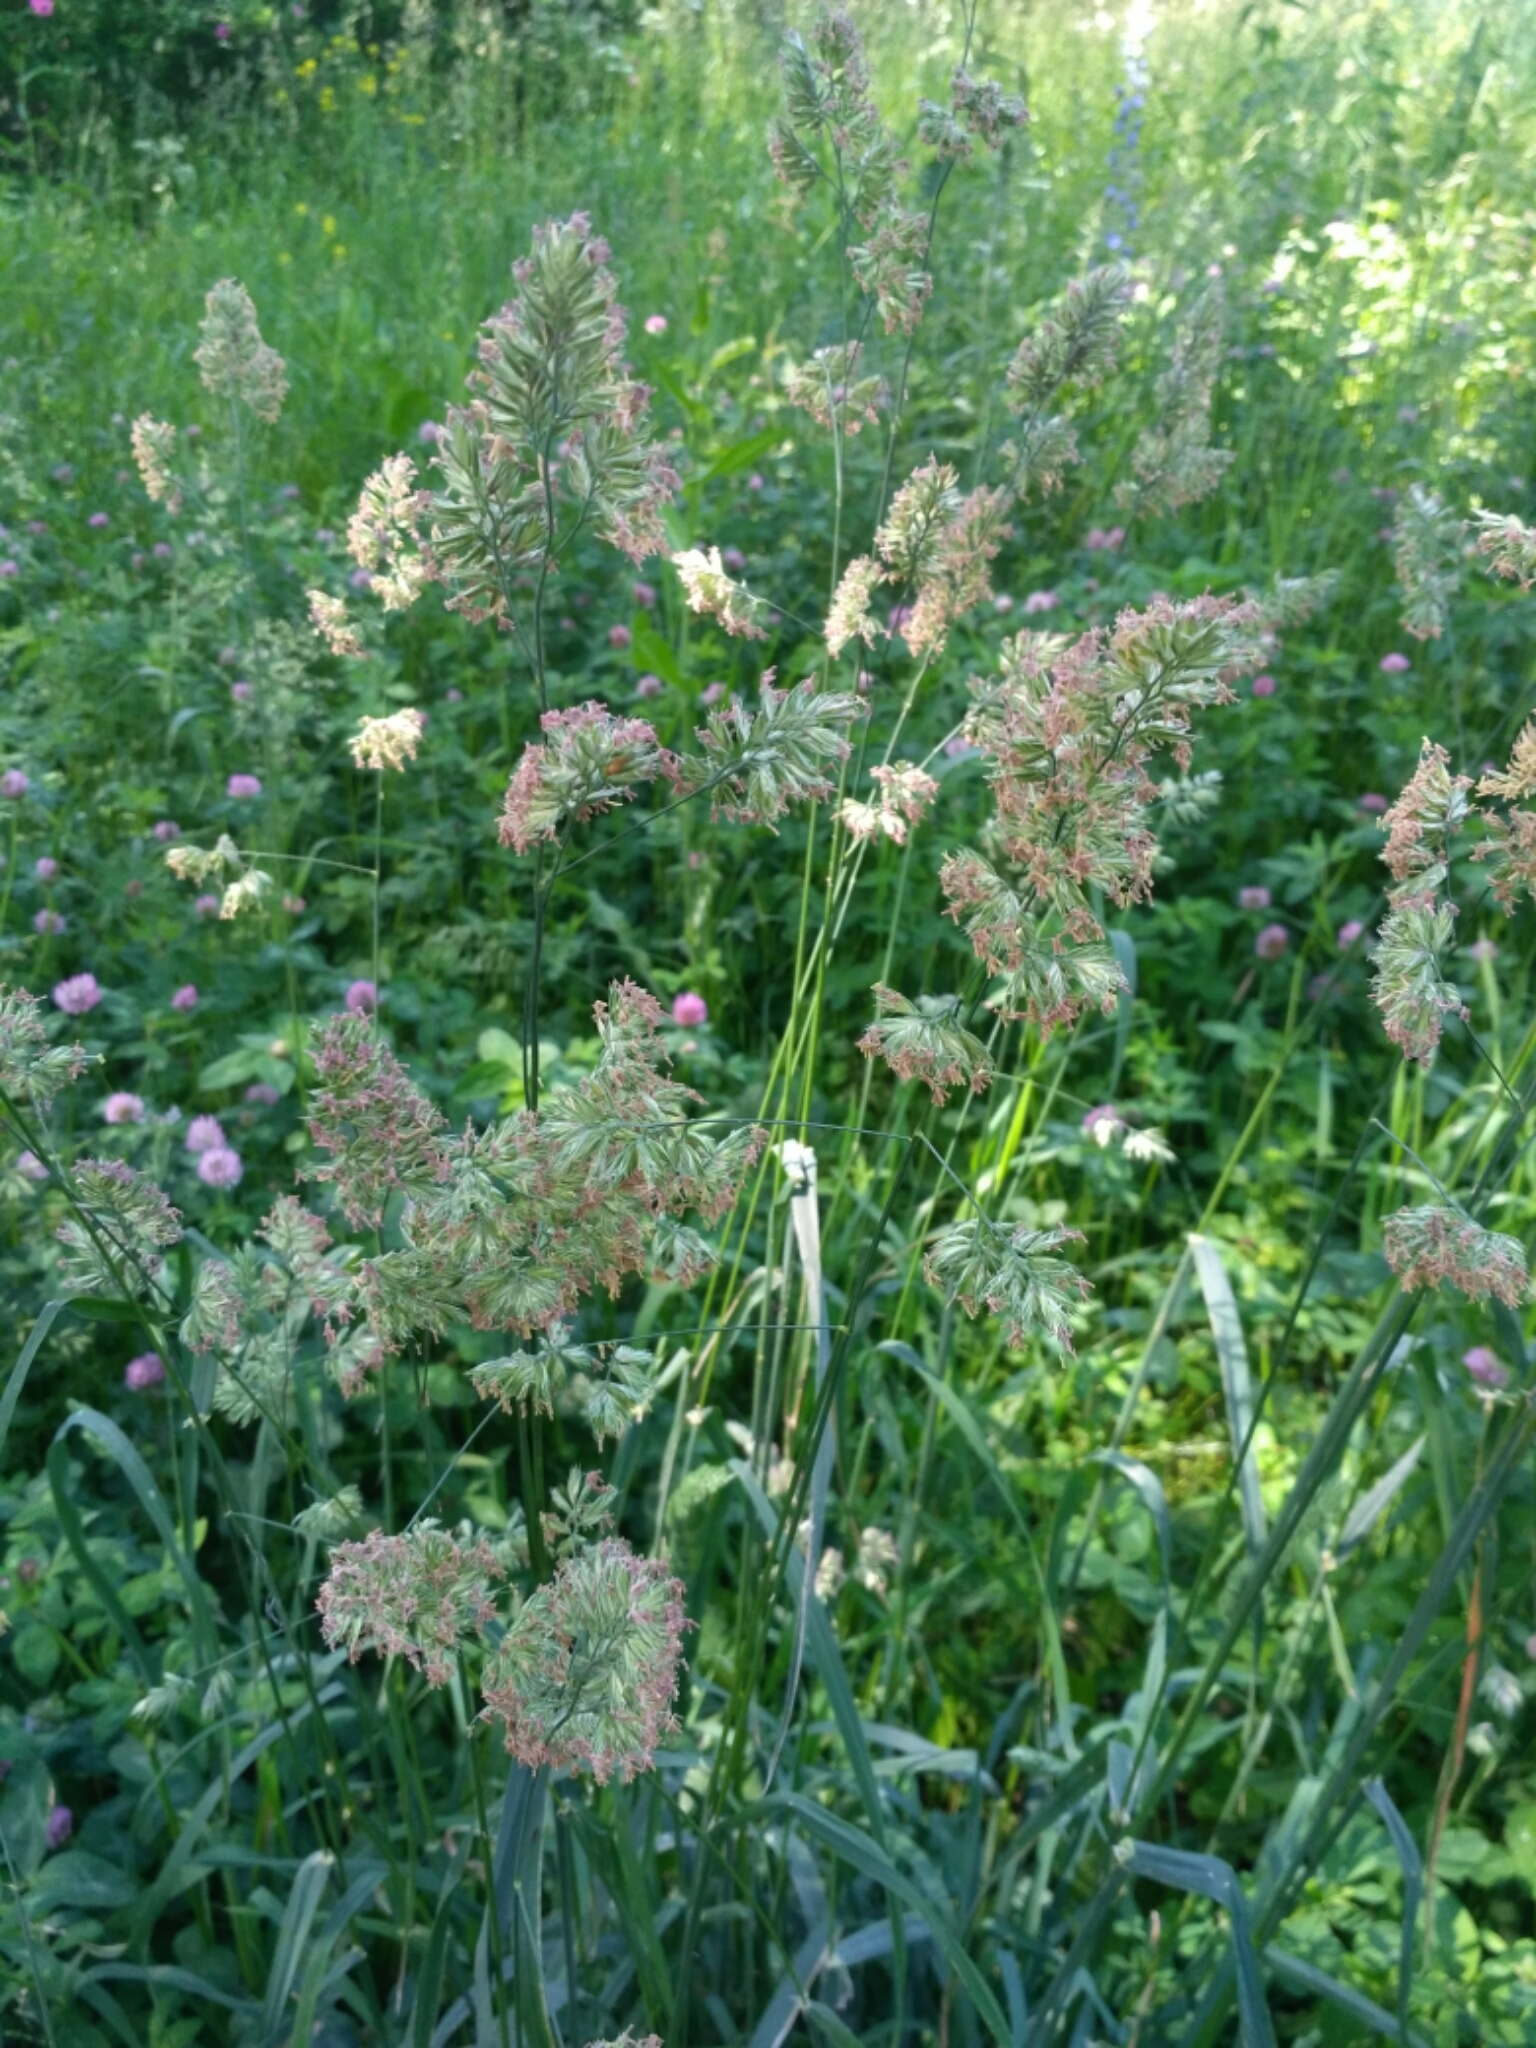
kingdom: Plantae
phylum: Tracheophyta
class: Liliopsida
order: Poales
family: Poaceae
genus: Dactylis
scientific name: Dactylis glomerata
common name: Orchardgrass
